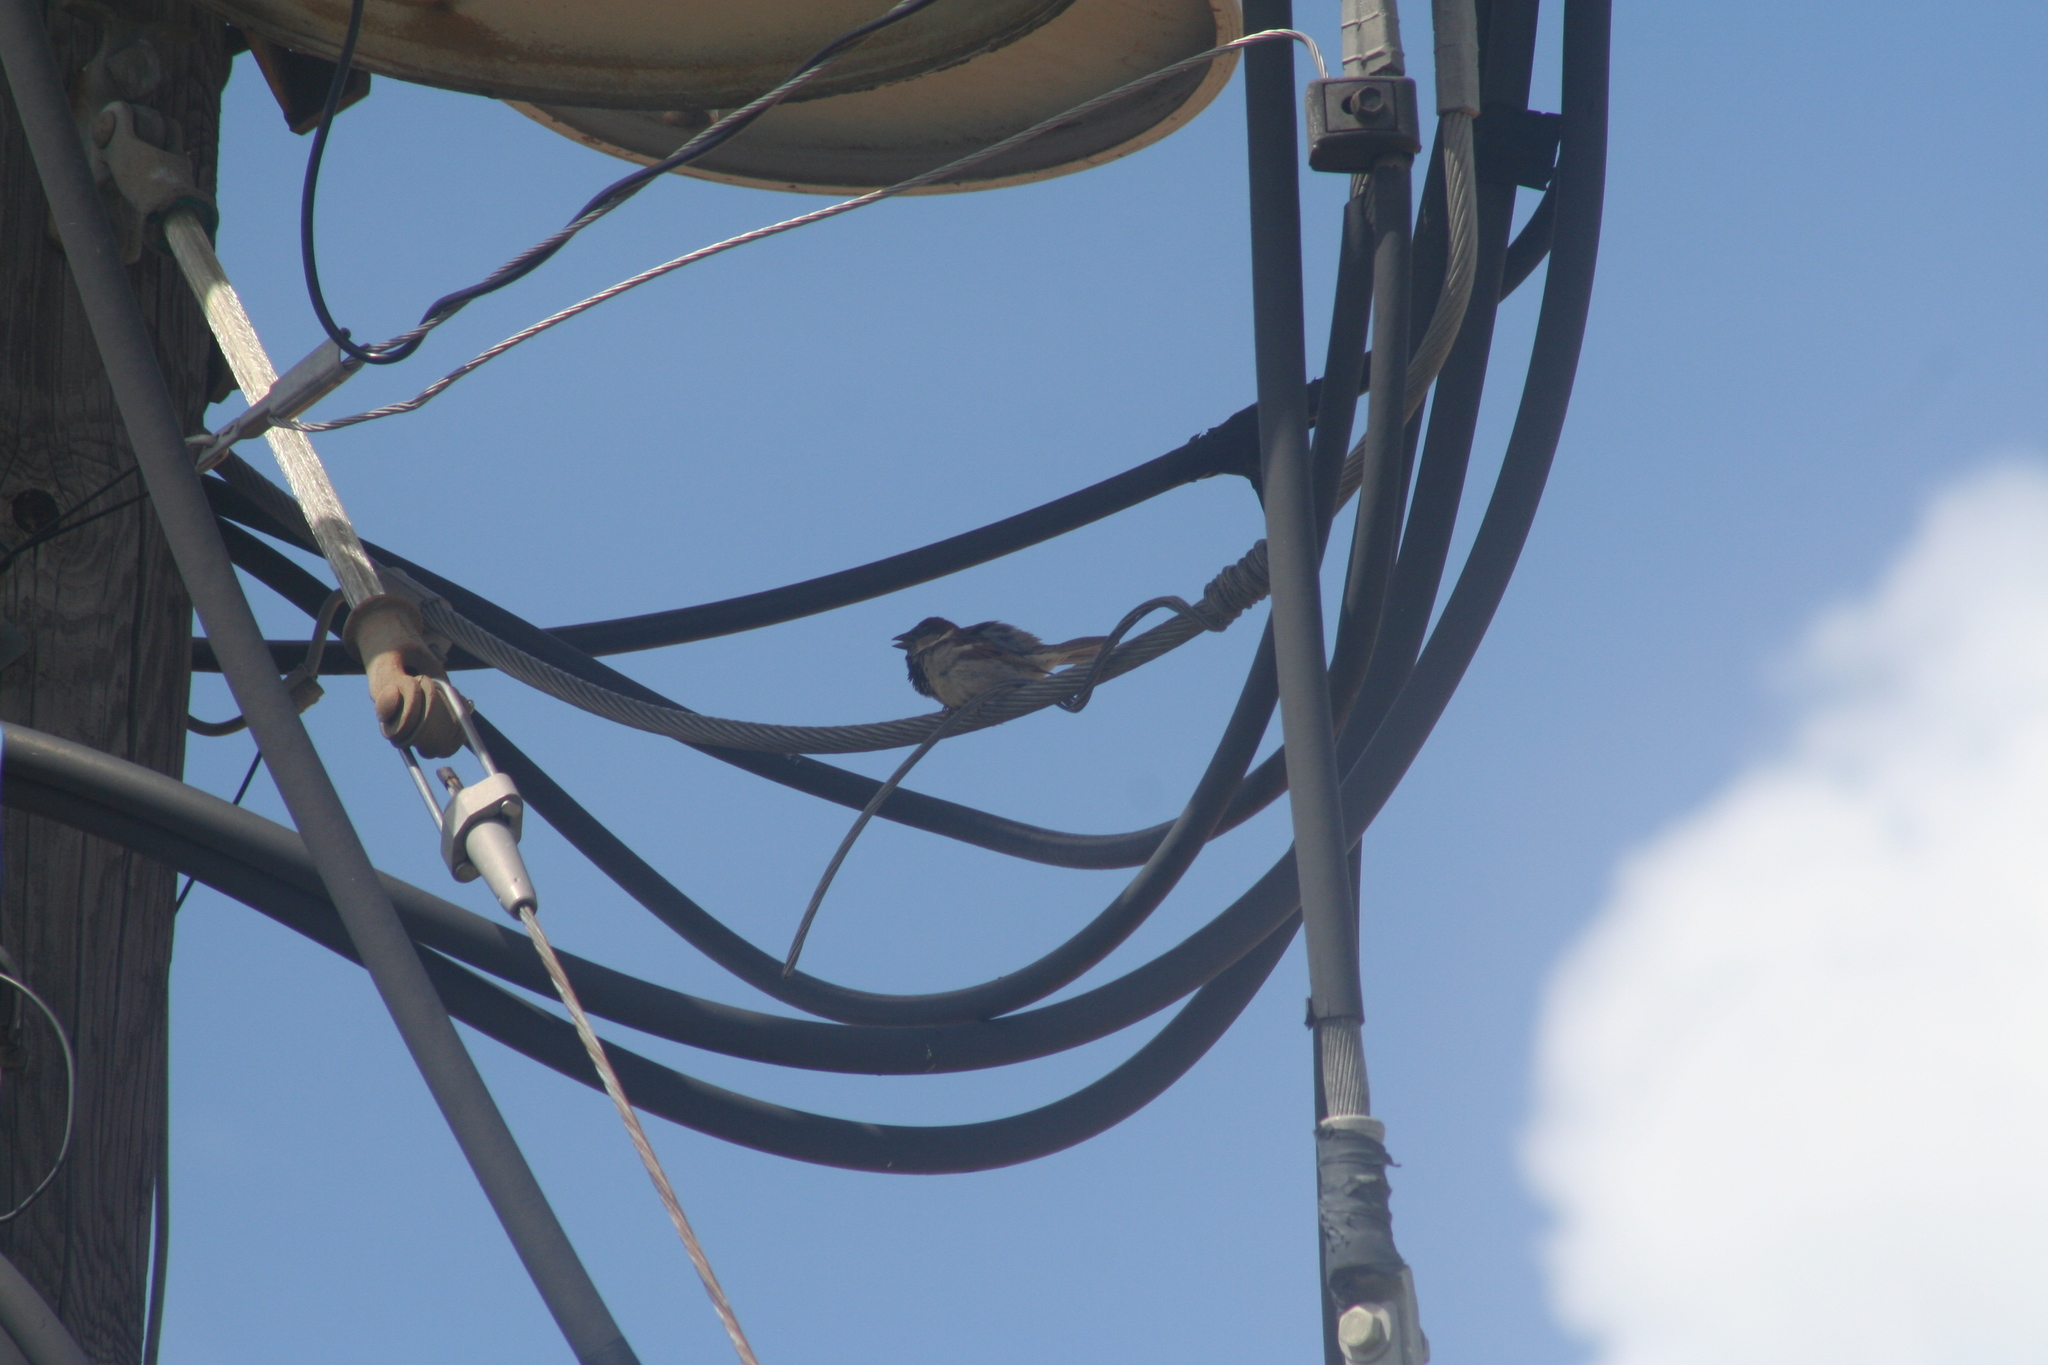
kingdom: Animalia
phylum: Chordata
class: Aves
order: Passeriformes
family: Passeridae
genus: Passer
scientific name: Passer domesticus
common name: House sparrow
